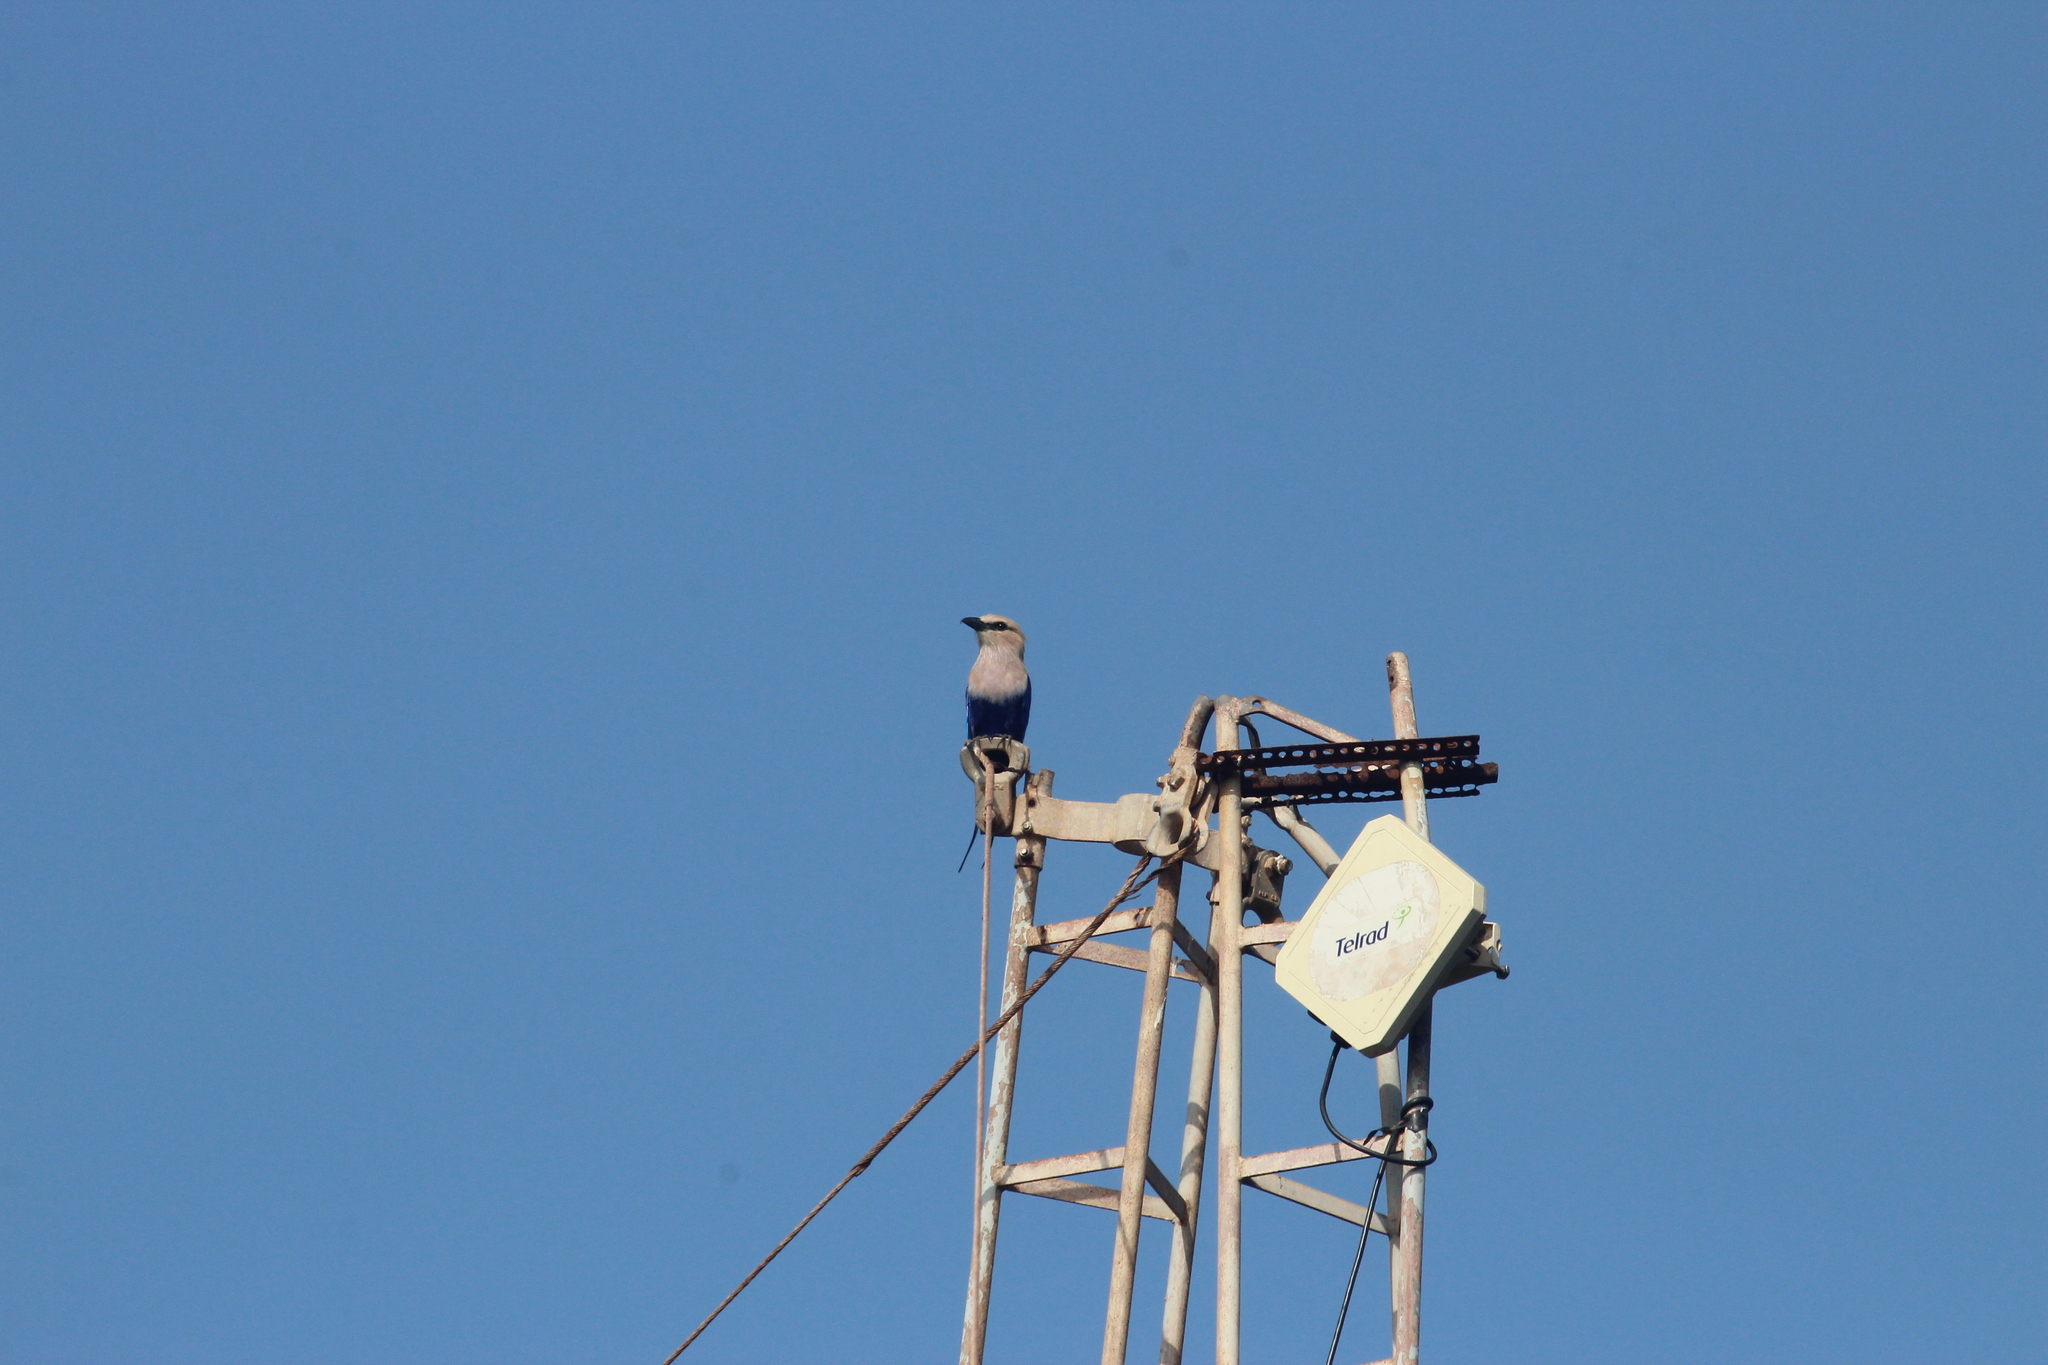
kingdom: Animalia
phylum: Chordata
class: Aves
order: Coraciiformes
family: Coraciidae
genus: Coracias
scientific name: Coracias cyanogaster
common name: Blue-bellied roller
